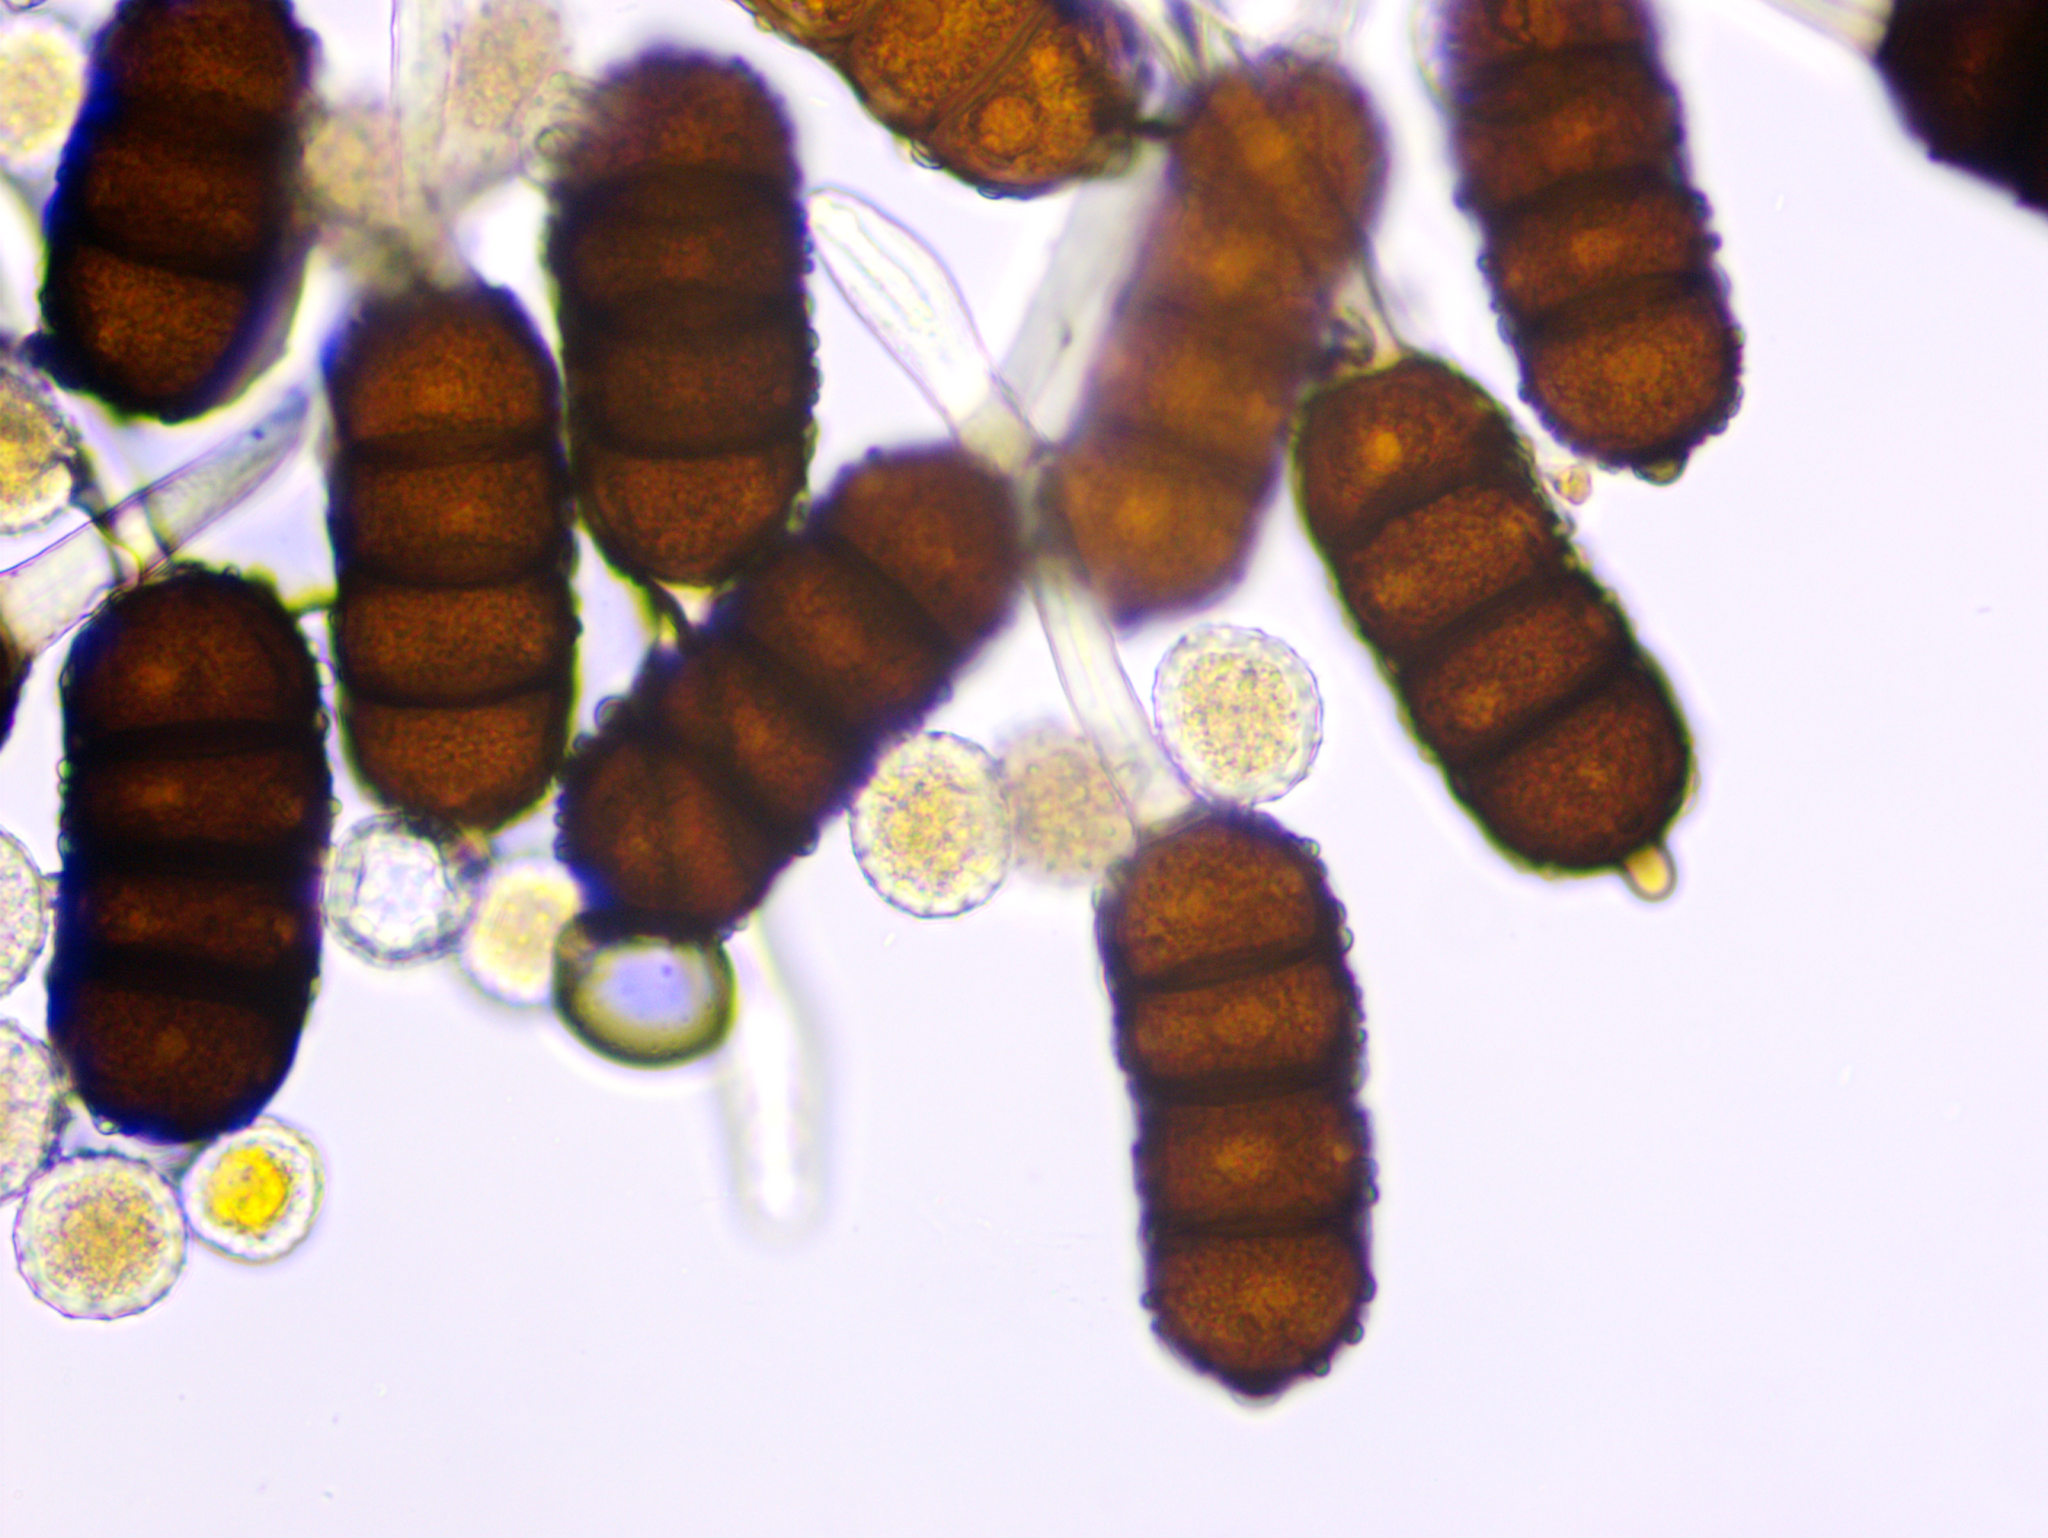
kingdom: Fungi
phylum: Basidiomycota
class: Pucciniomycetes
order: Pucciniales
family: Phragmidiaceae
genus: Phragmidium
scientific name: Phragmidium violaceum
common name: Violet bramble rust
